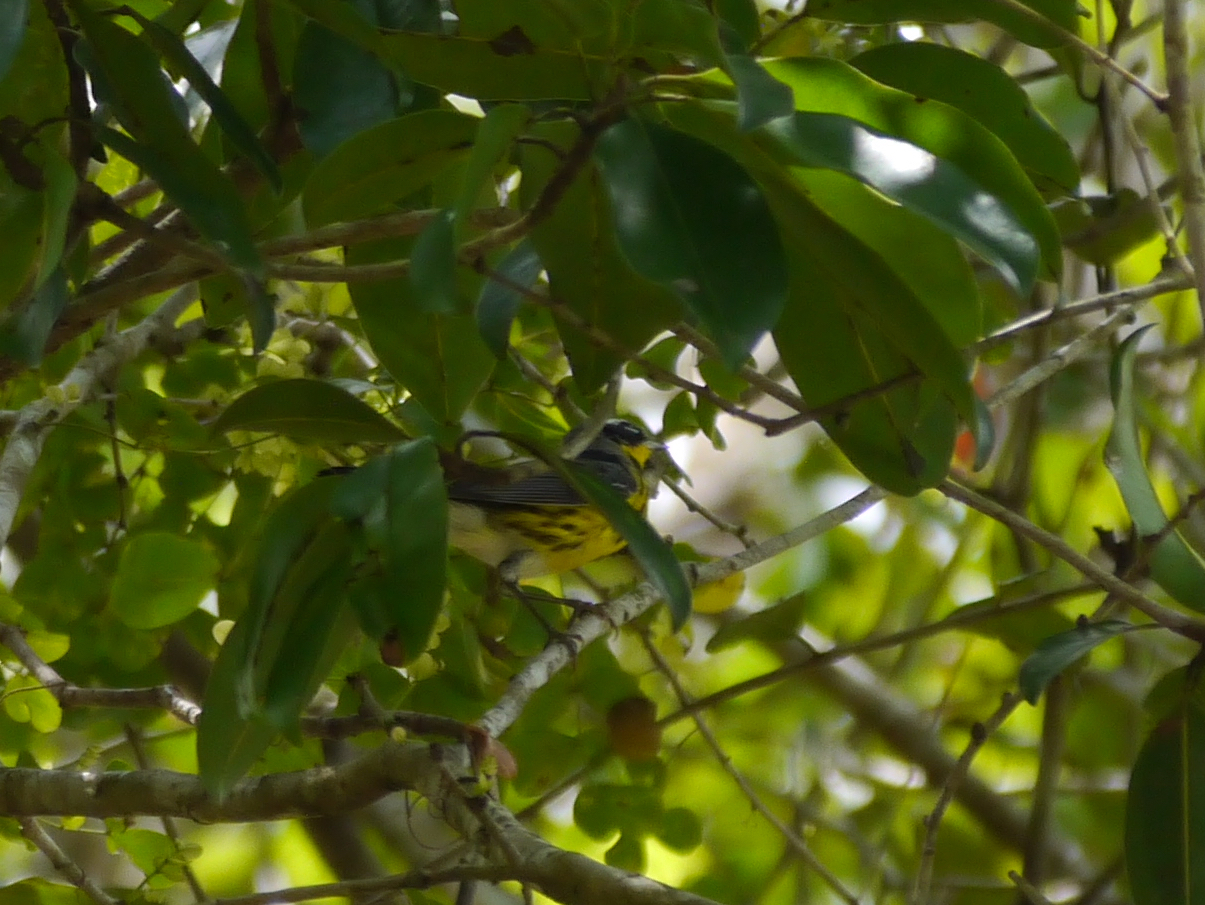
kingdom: Animalia
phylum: Chordata
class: Aves
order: Passeriformes
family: Parulidae
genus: Setophaga
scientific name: Setophaga magnolia
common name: Magnolia warbler
